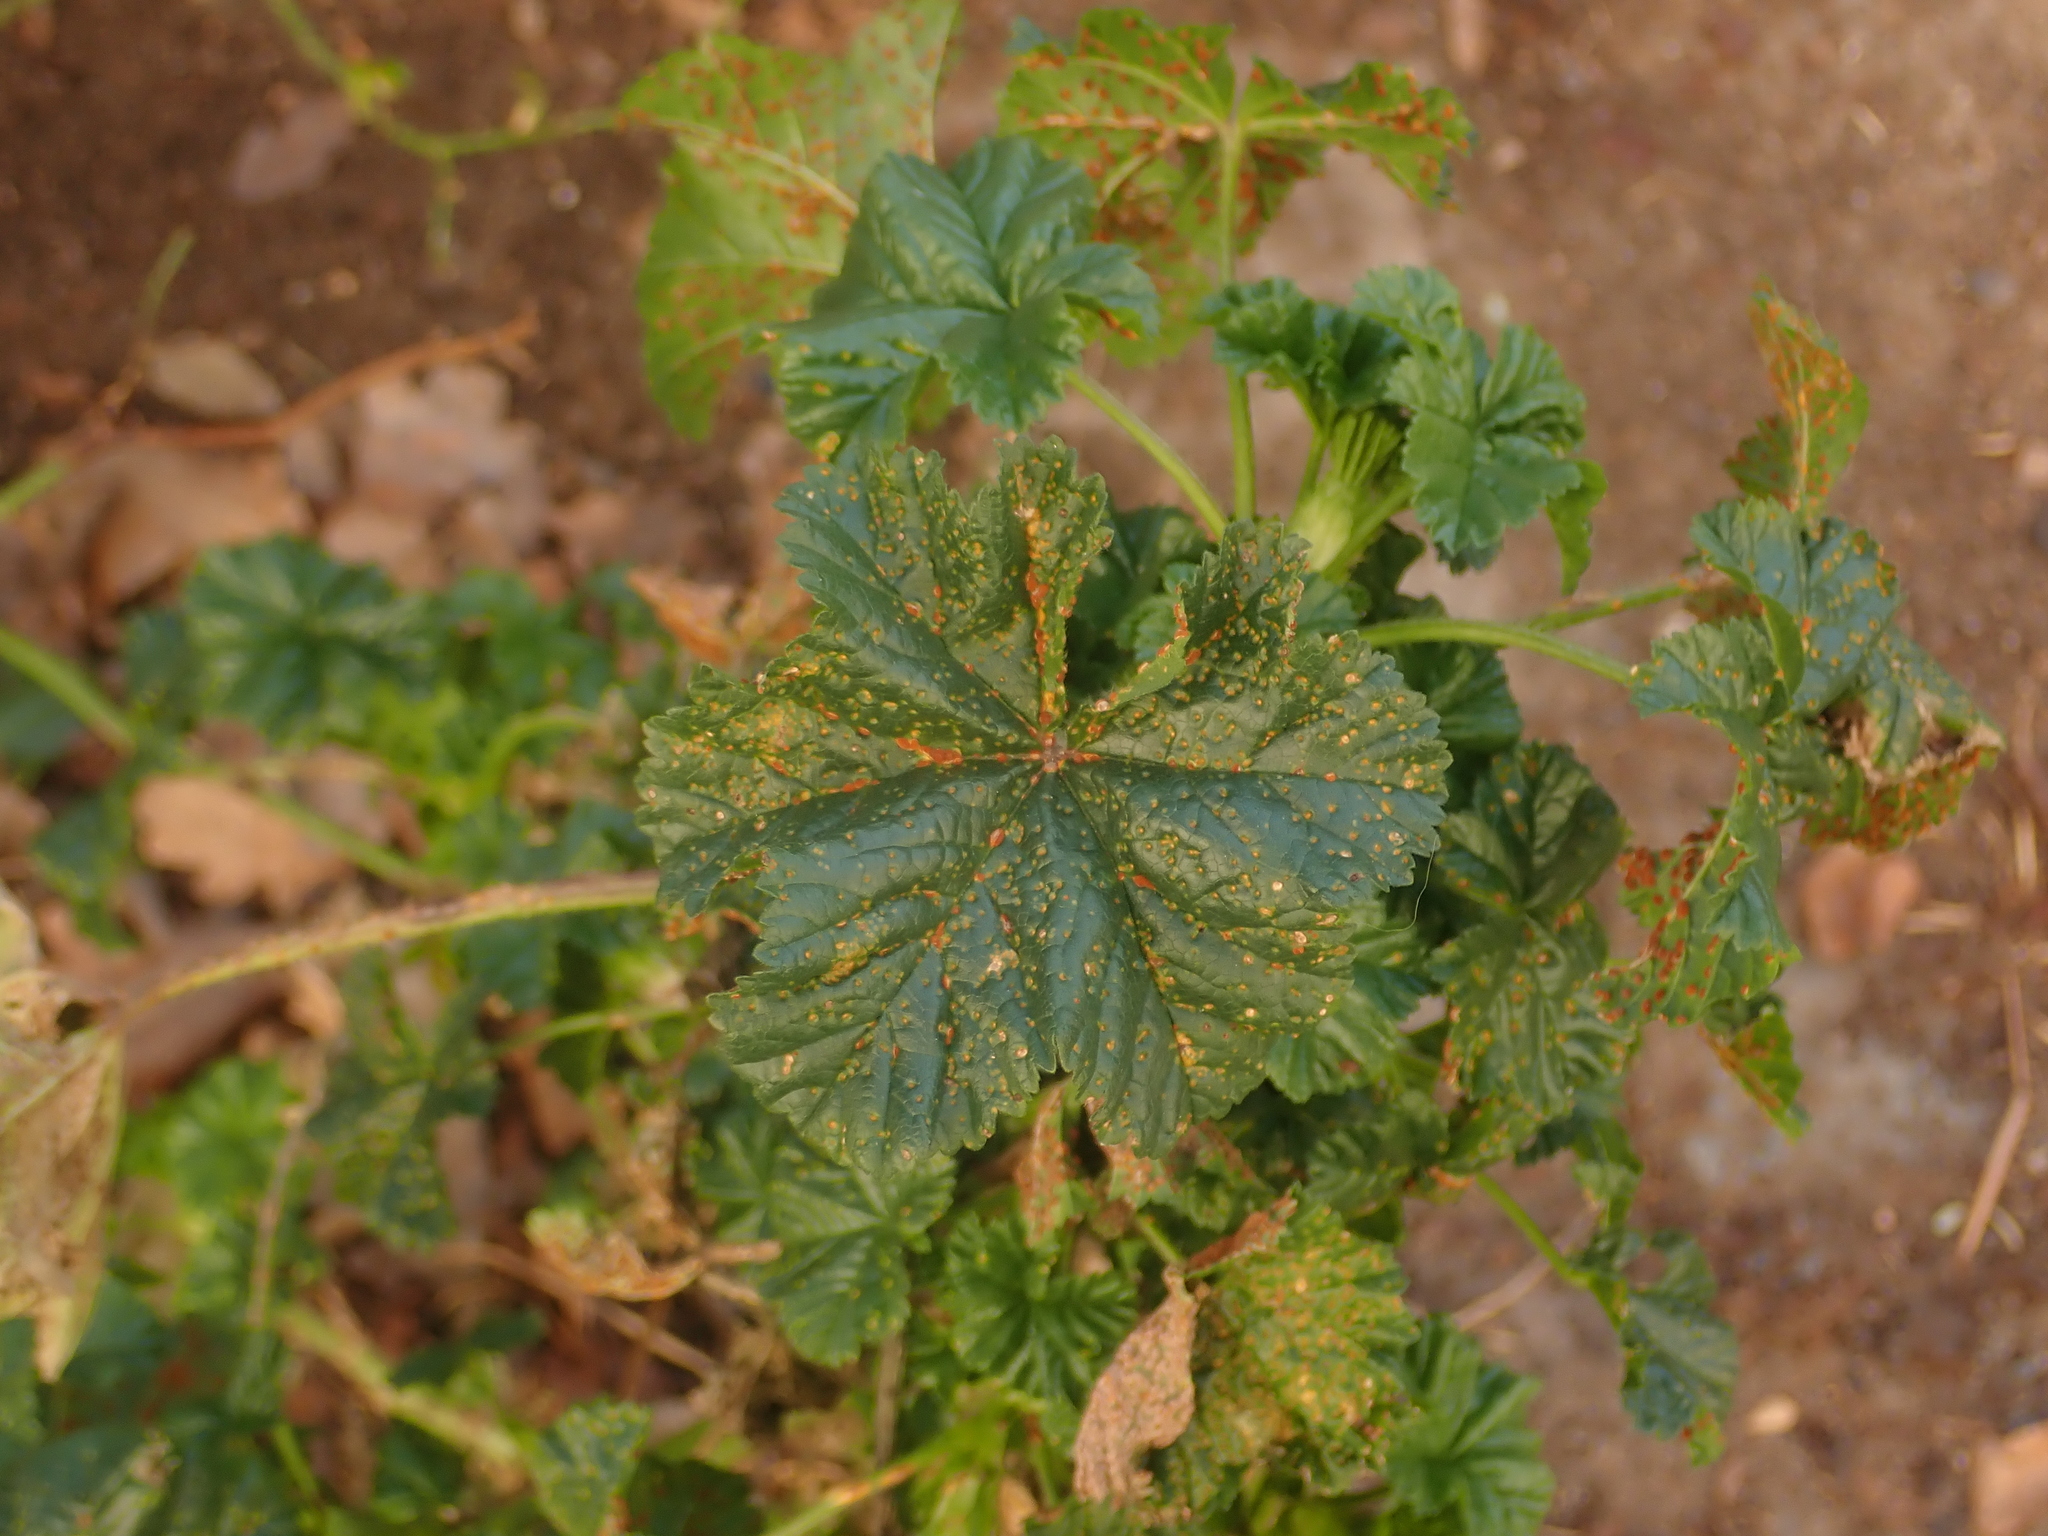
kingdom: Fungi
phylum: Basidiomycota
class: Pucciniomycetes
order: Pucciniales
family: Pucciniaceae
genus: Puccinia
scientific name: Puccinia malvacearum
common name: Hollyhock rust
